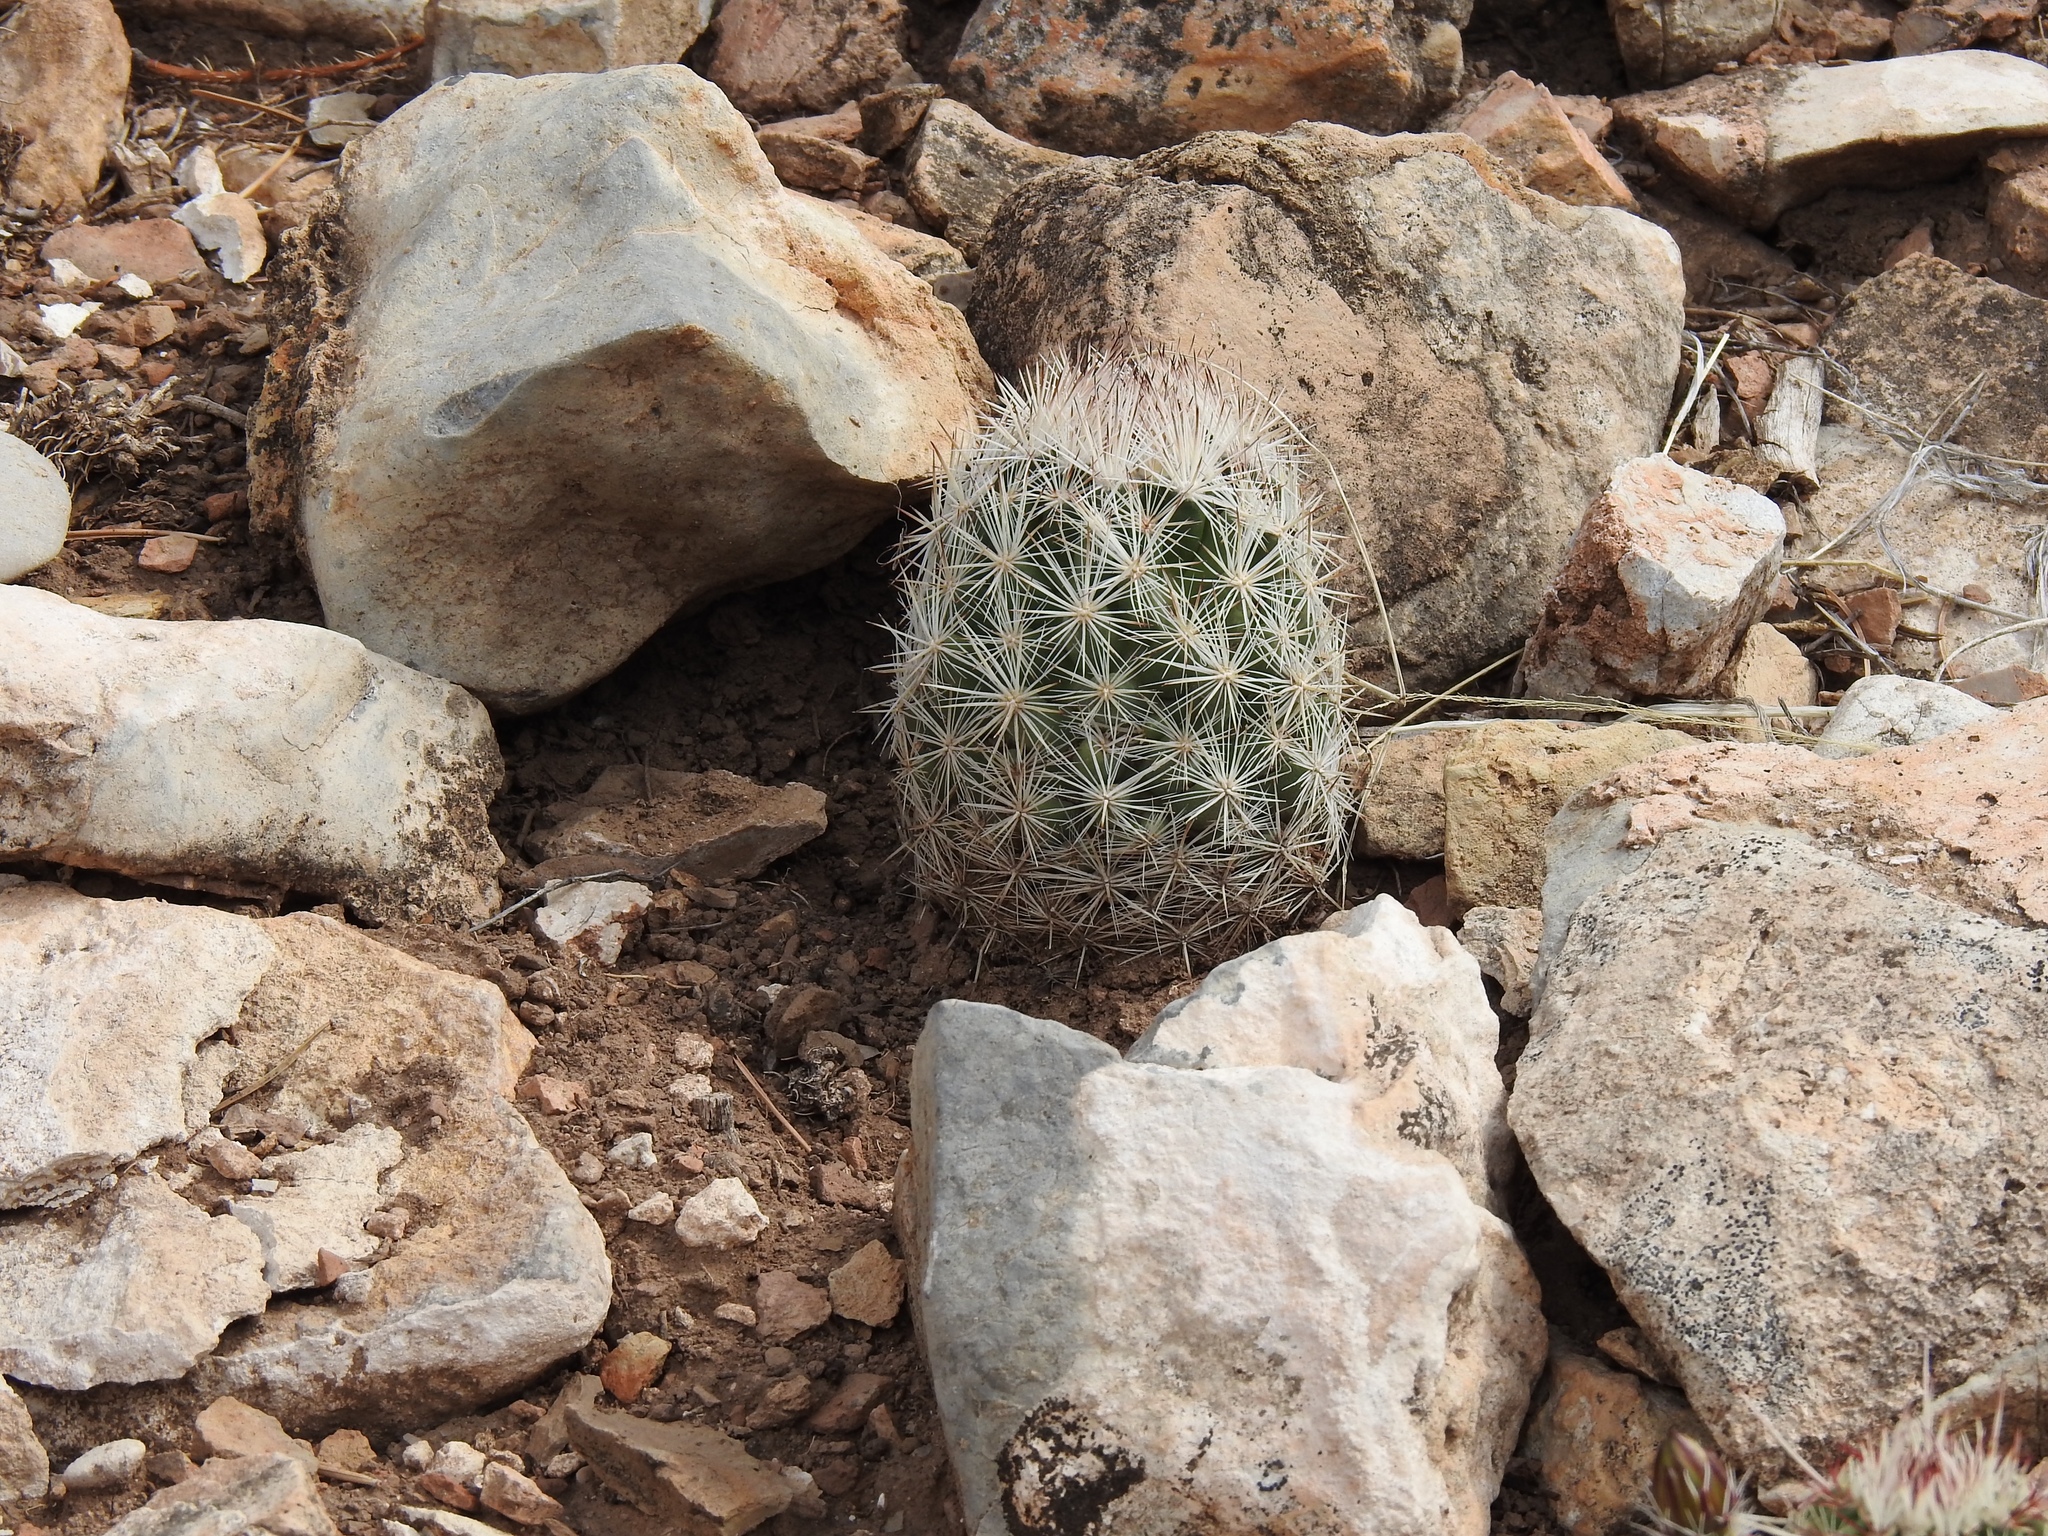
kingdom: Plantae
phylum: Tracheophyta
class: Magnoliopsida
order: Caryophyllales
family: Cactaceae
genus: Pelecyphora
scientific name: Pelecyphora sneedii
